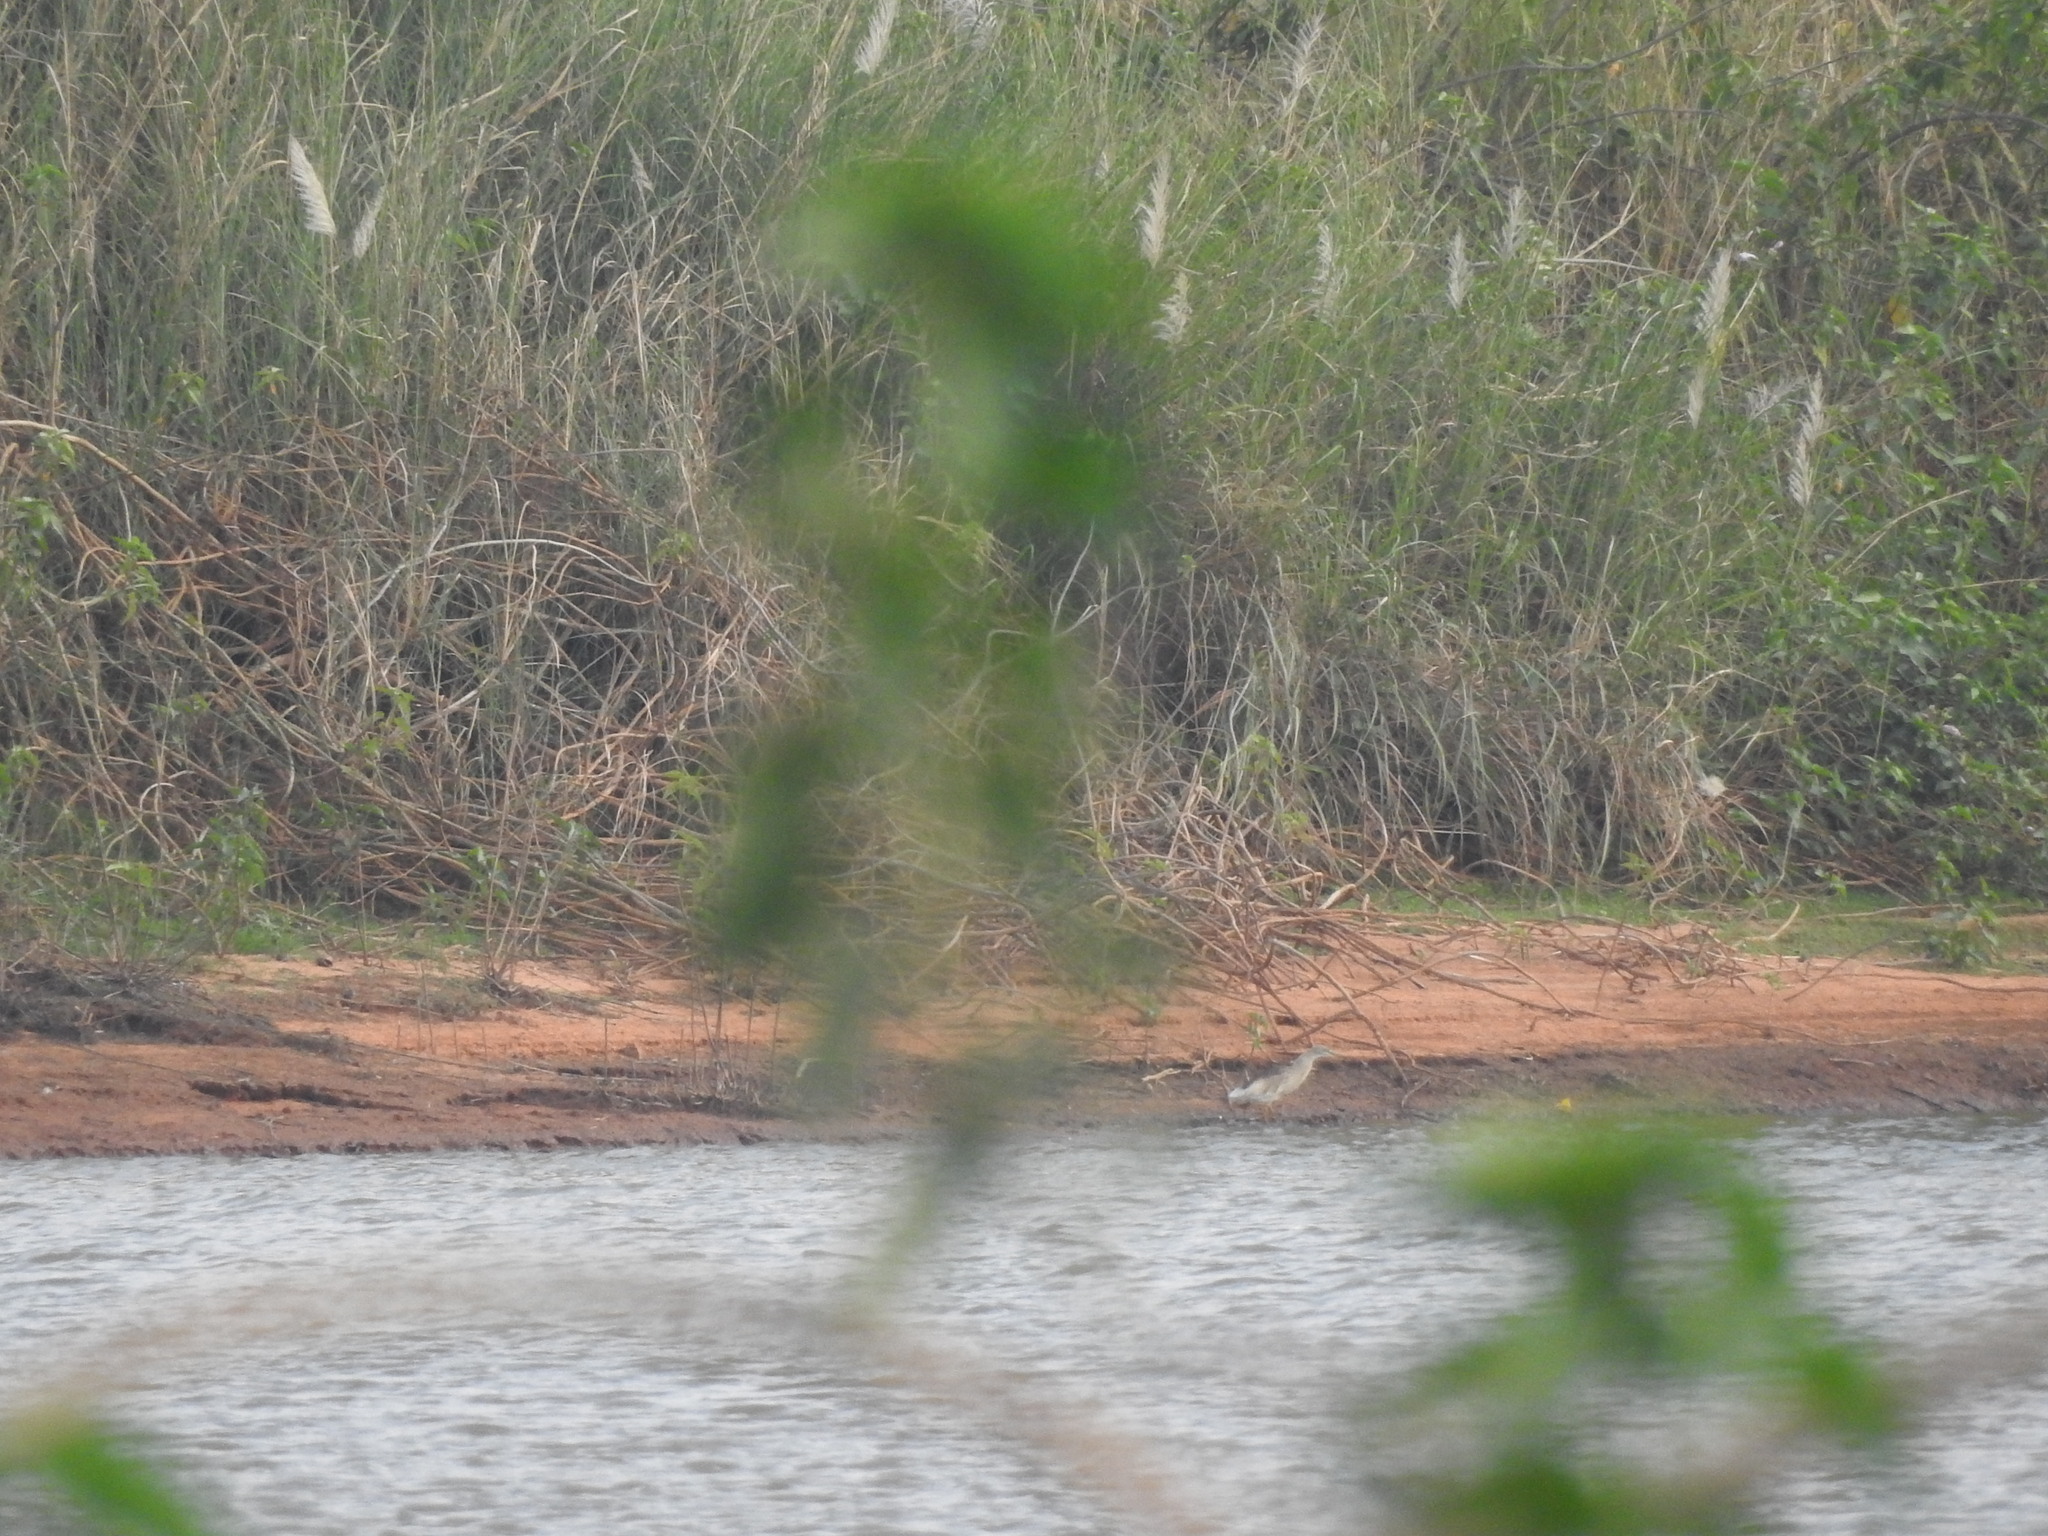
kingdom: Animalia
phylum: Chordata
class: Aves
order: Pelecaniformes
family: Ardeidae
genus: Ardeola
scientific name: Ardeola grayii
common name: Indian pond heron
